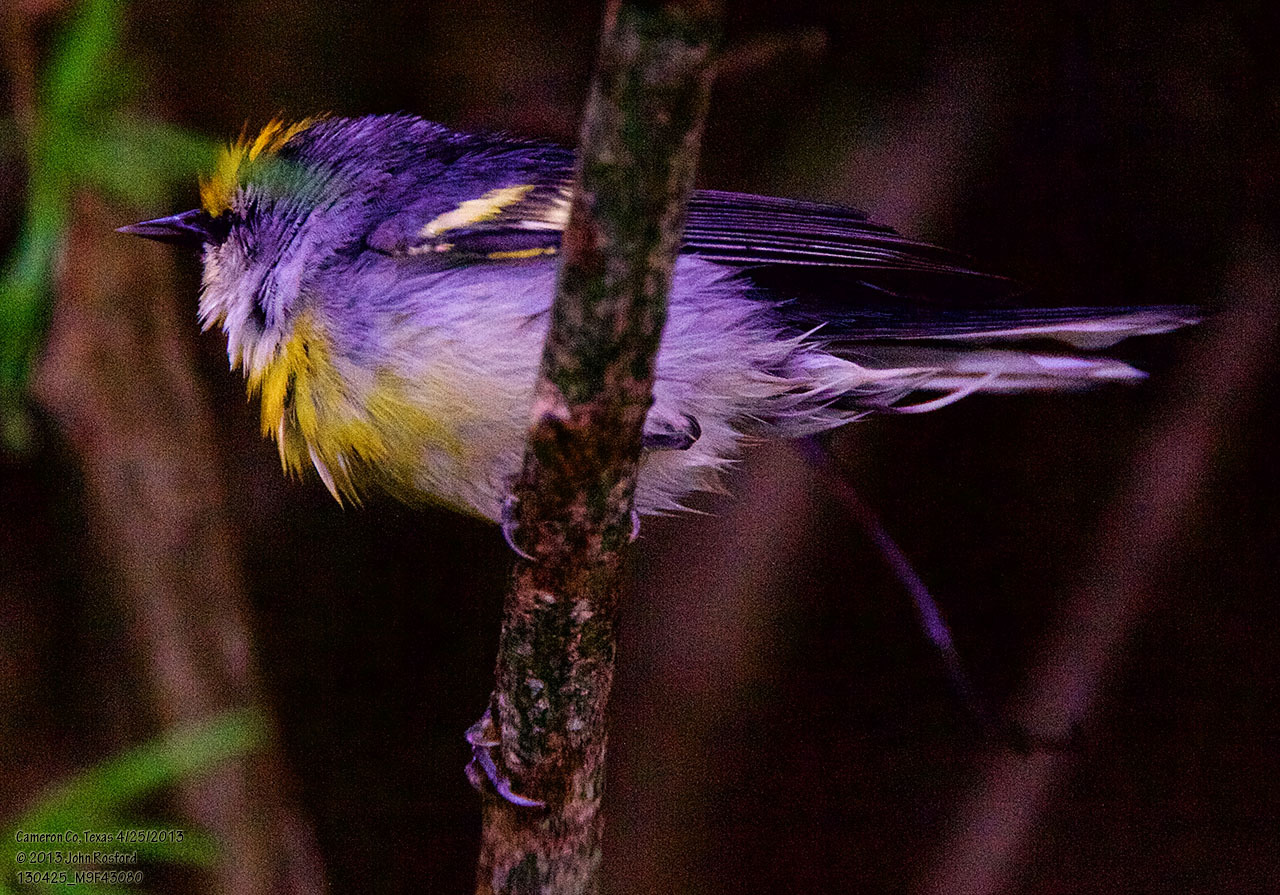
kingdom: Animalia
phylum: Chordata
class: Aves
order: Passeriformes
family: Parulidae
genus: Vermivora
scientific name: Vermivora
